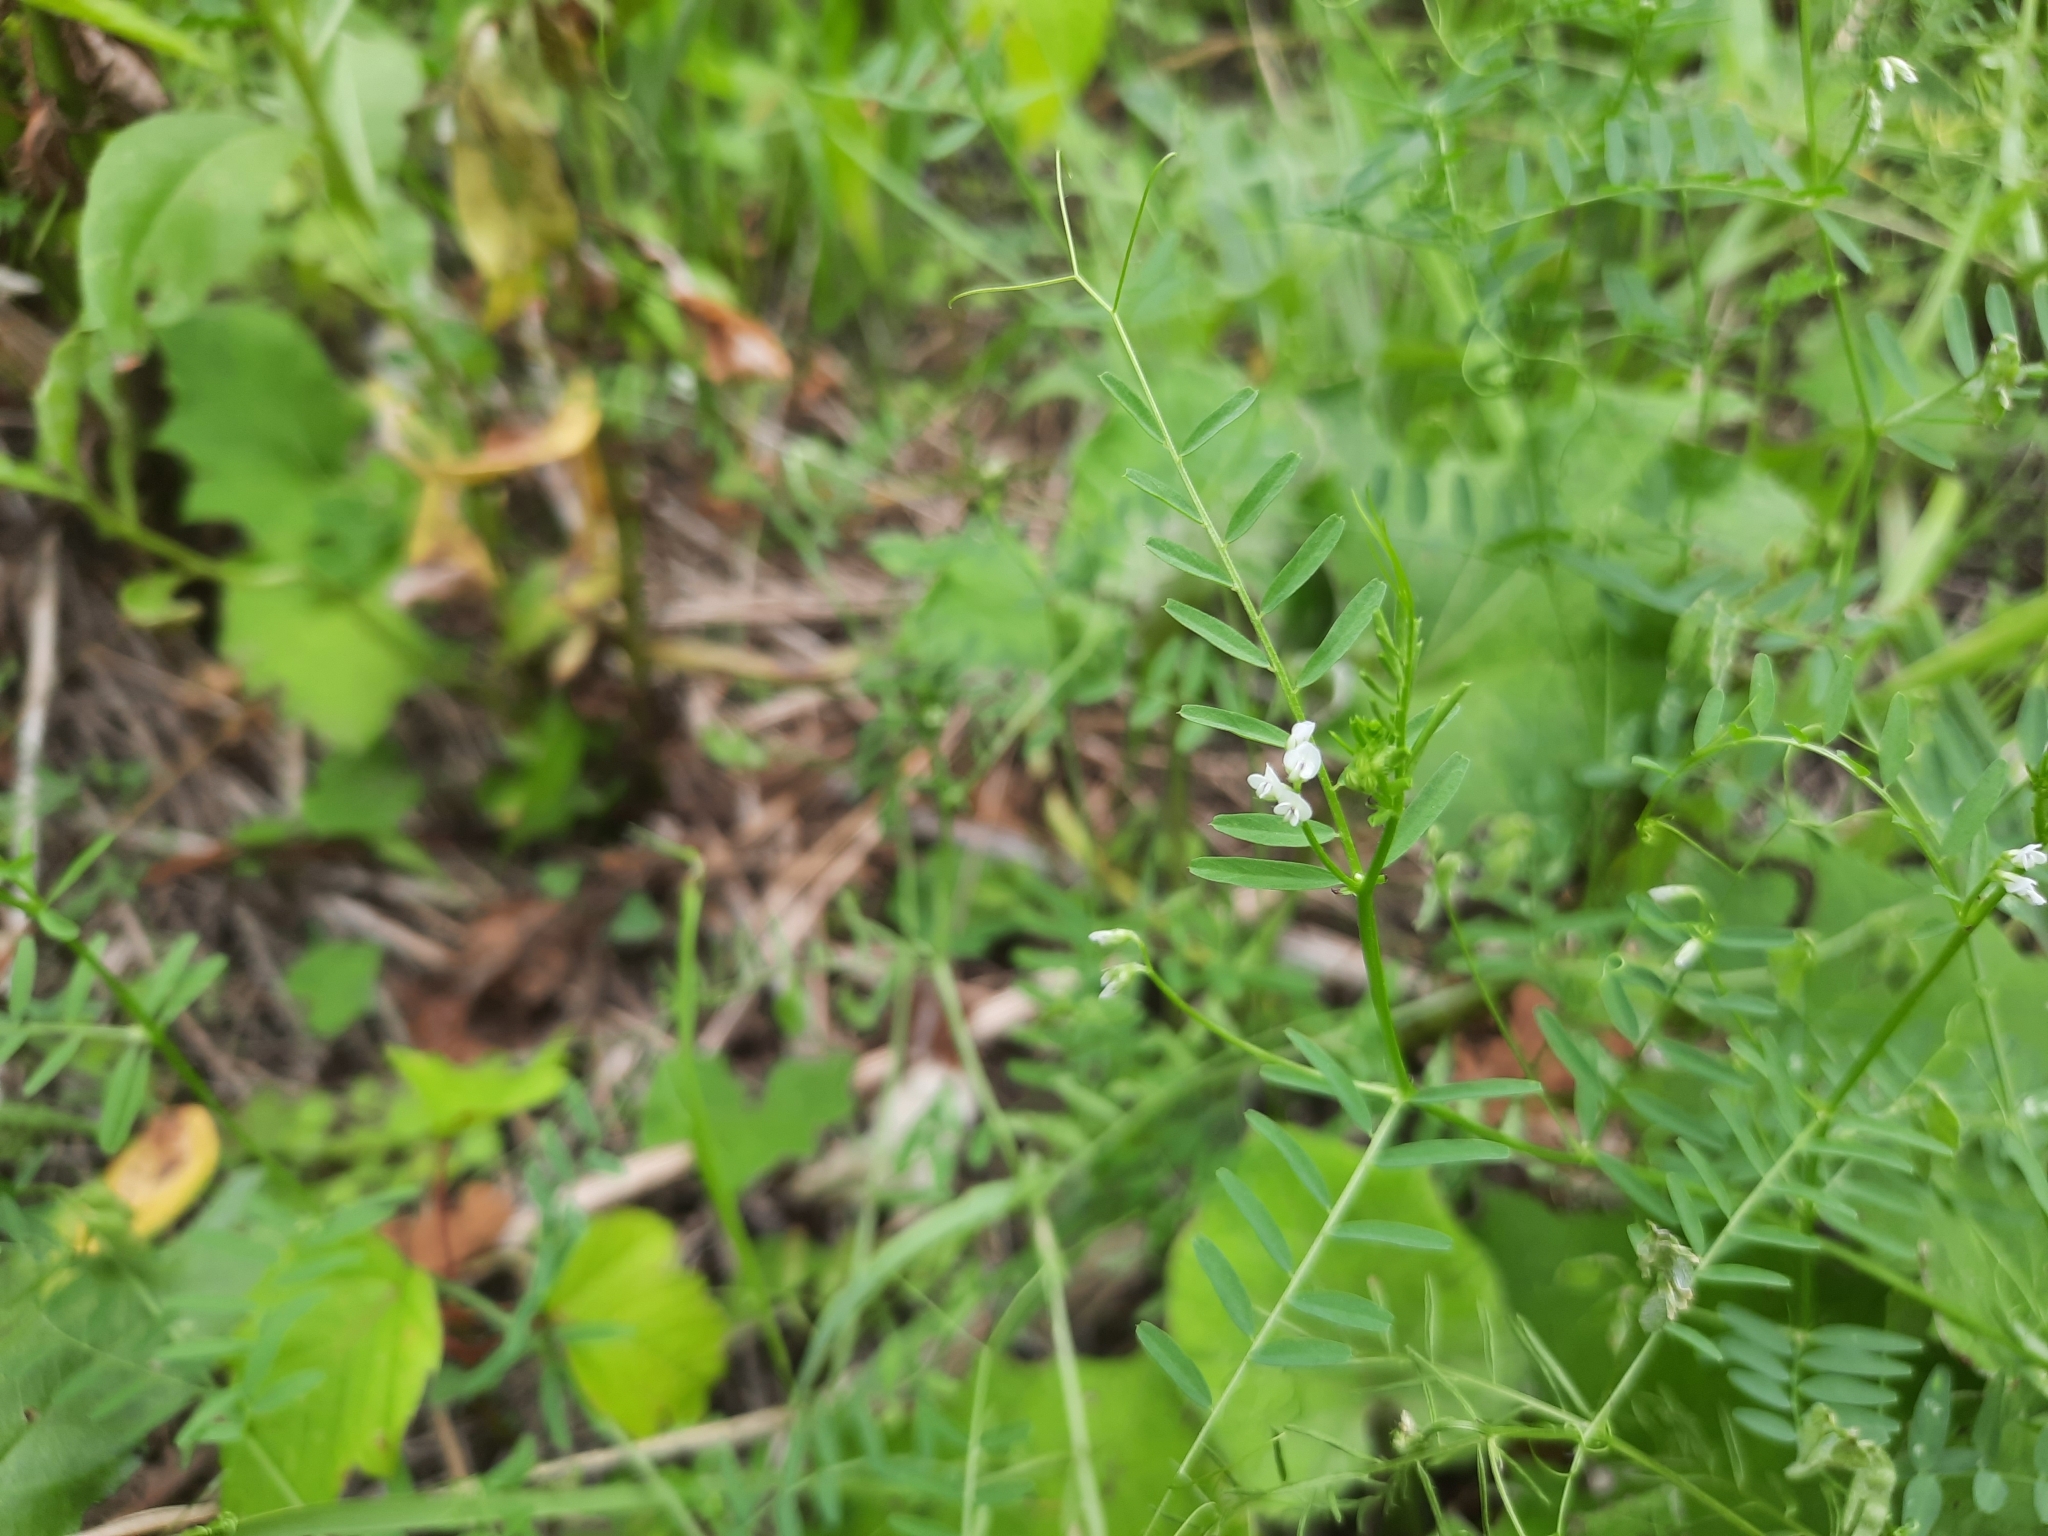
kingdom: Plantae
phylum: Tracheophyta
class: Magnoliopsida
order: Fabales
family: Fabaceae
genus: Vicia
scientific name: Vicia hirsuta
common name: Tiny vetch
